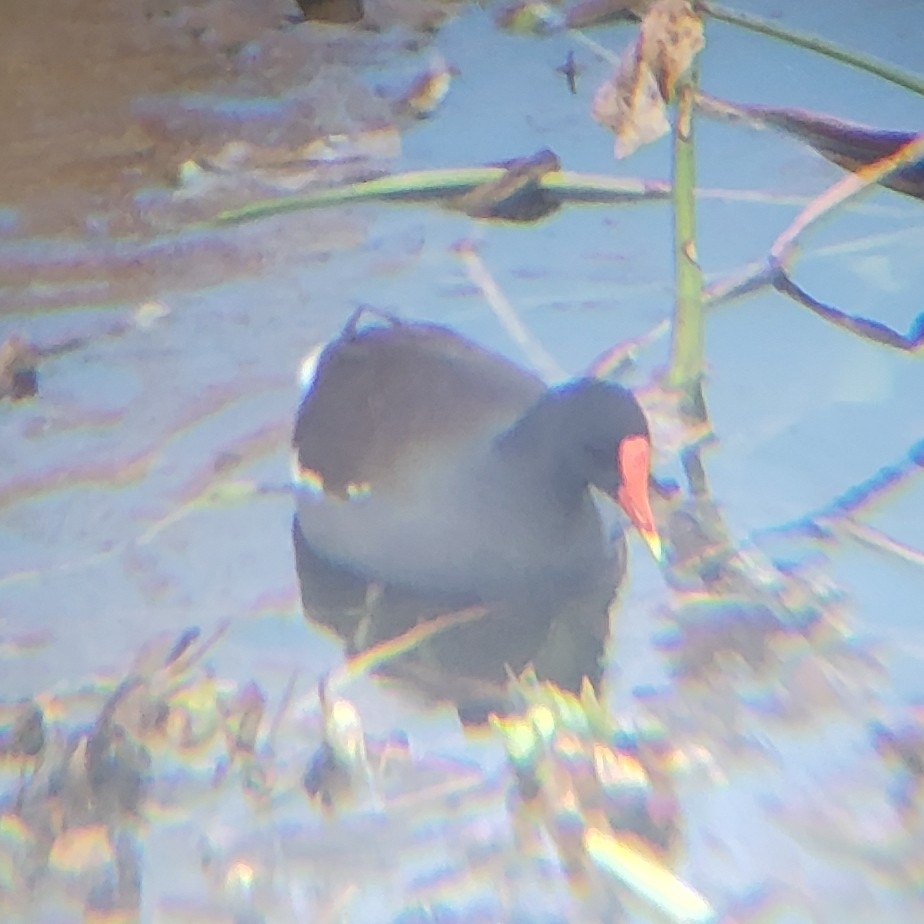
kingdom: Animalia
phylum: Chordata
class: Aves
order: Gruiformes
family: Rallidae
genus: Gallinula
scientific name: Gallinula chloropus
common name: Common moorhen
